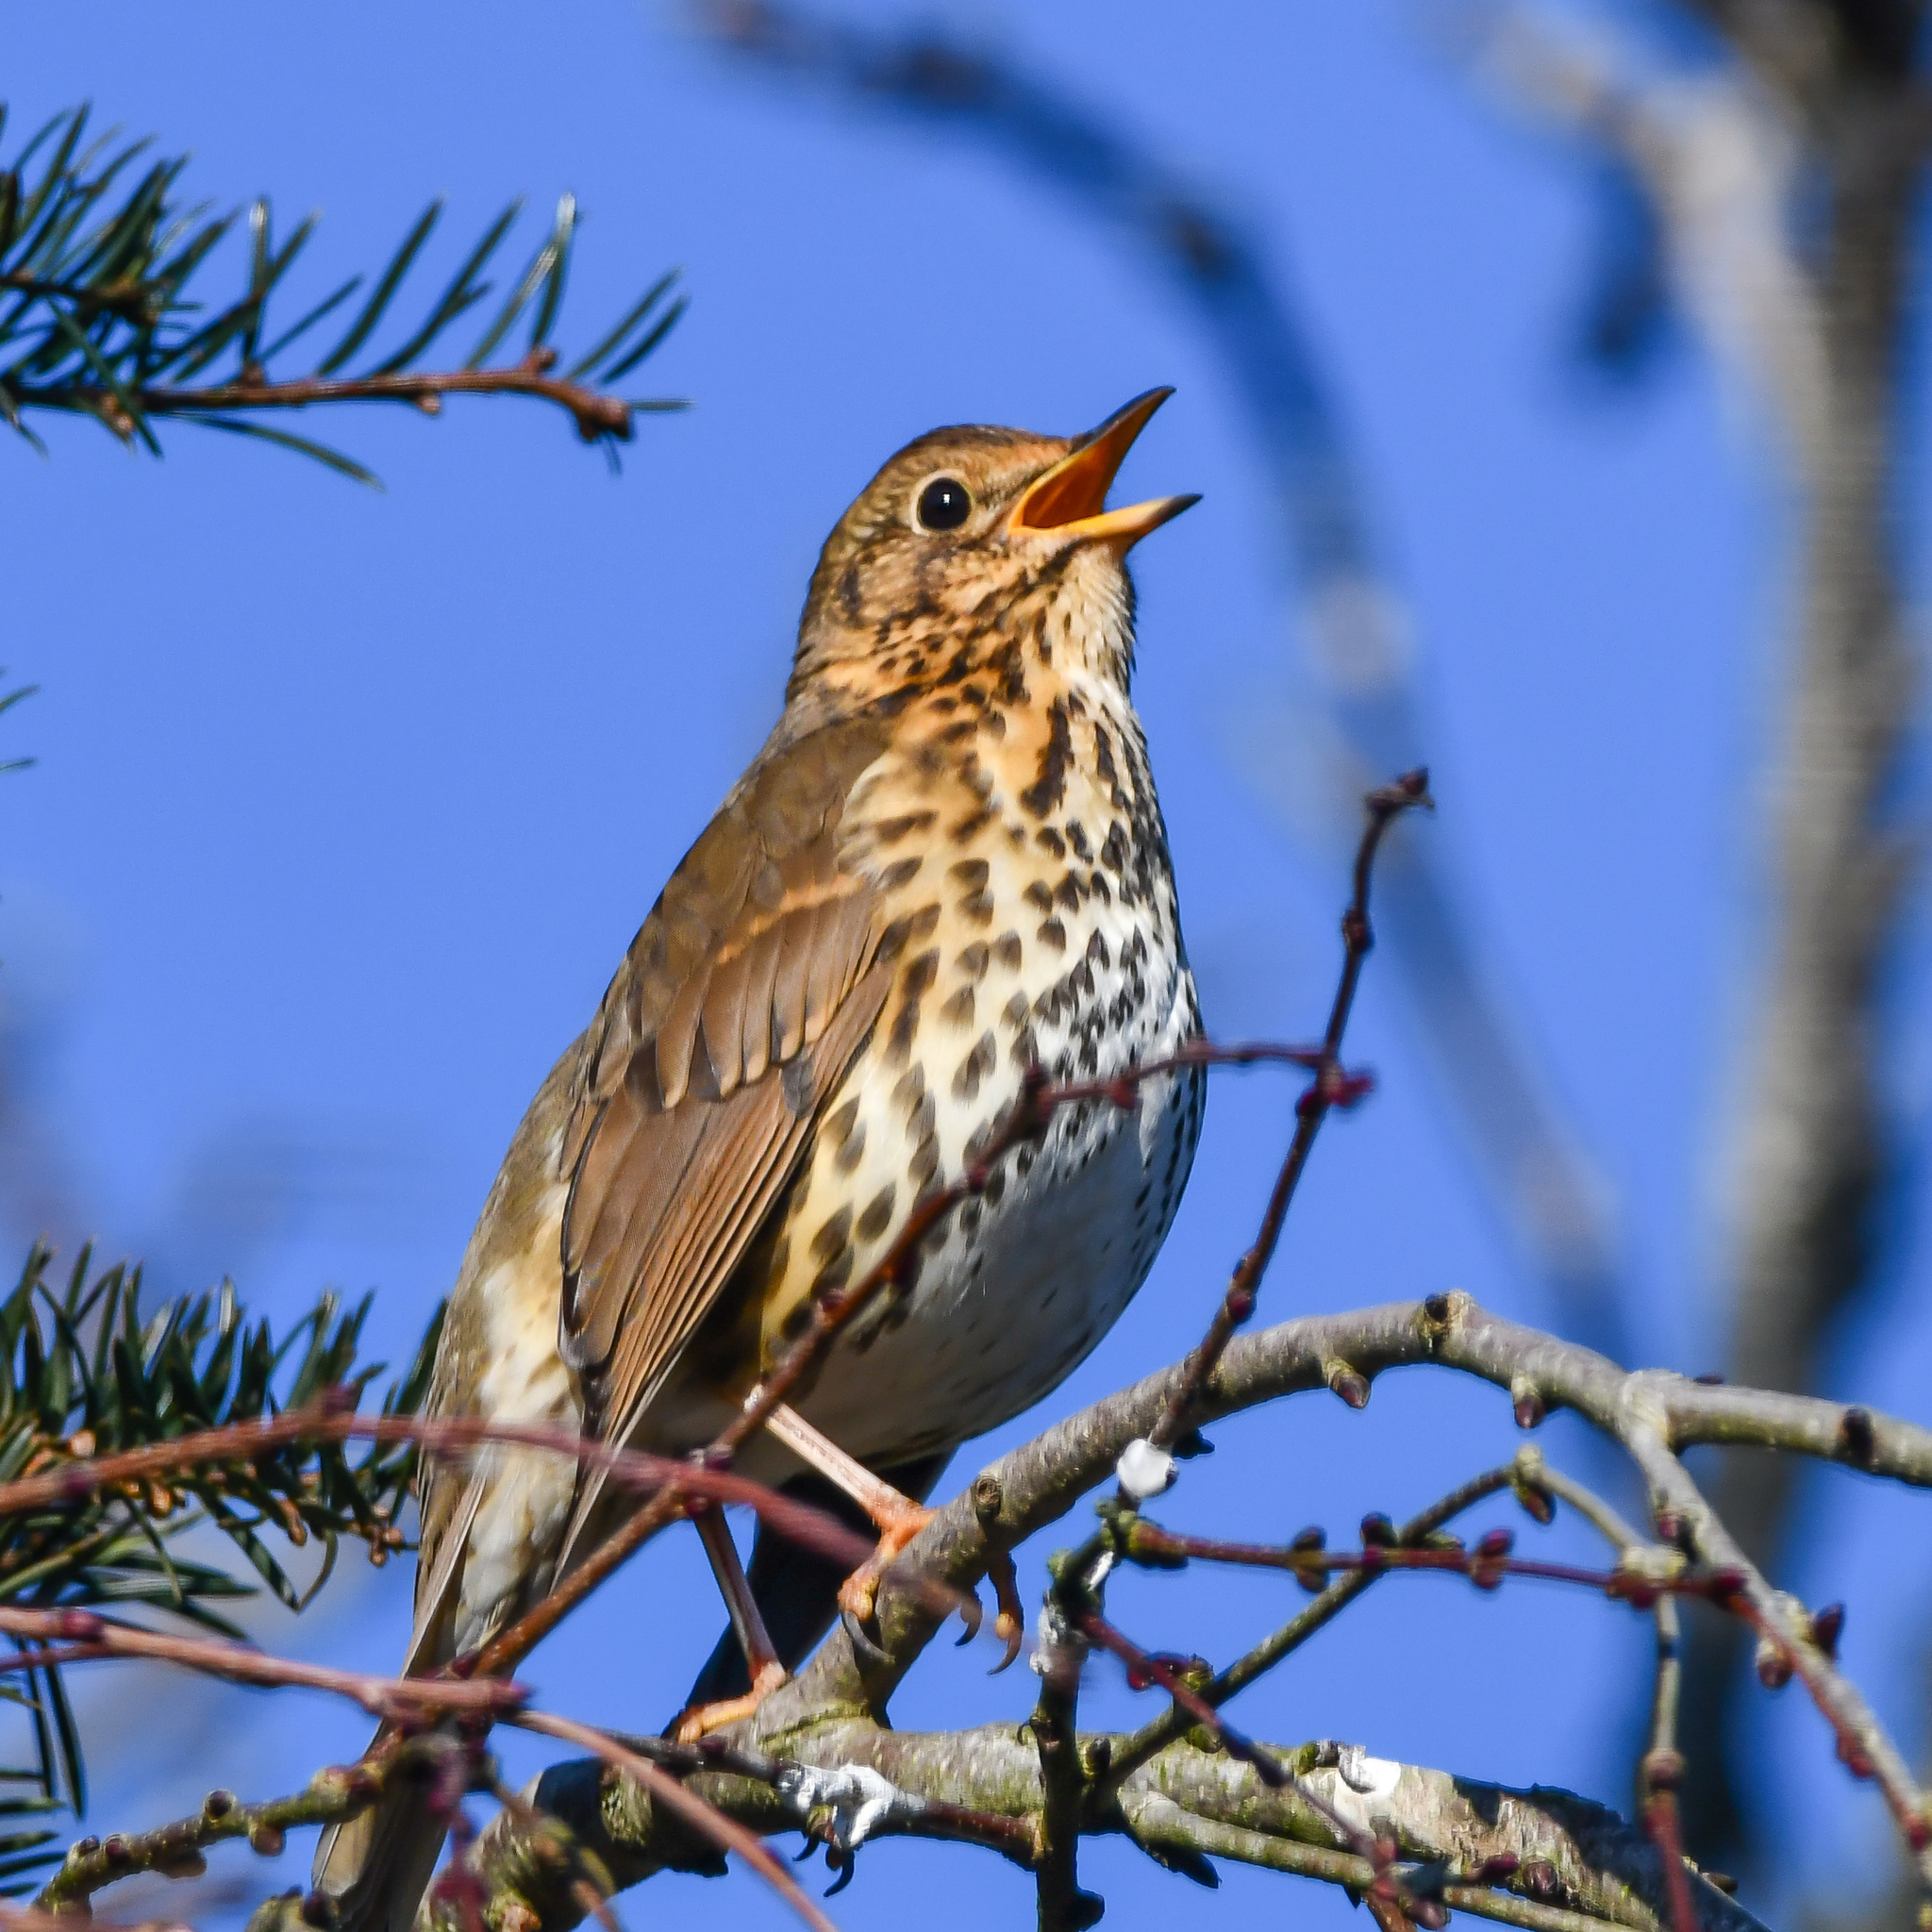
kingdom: Animalia
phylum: Chordata
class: Aves
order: Passeriformes
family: Turdidae
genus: Turdus
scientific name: Turdus philomelos
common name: Song thrush
